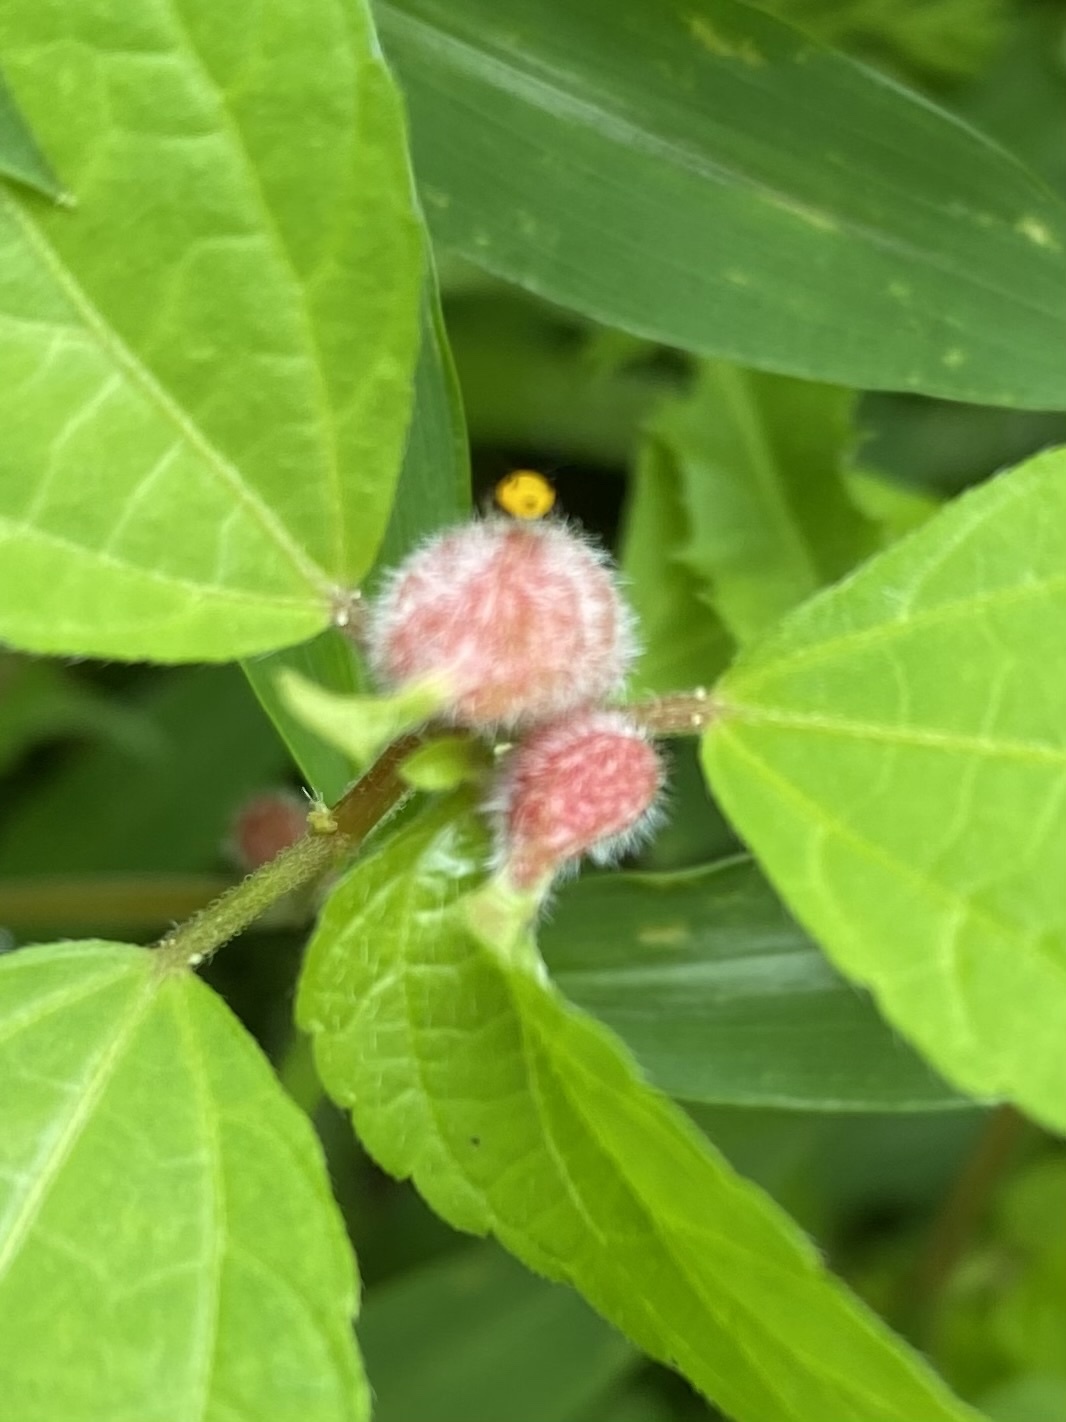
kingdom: Animalia
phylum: Arthropoda
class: Insecta
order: Diptera
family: Cecidomyiidae
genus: Resseliella
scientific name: Resseliella globosa
